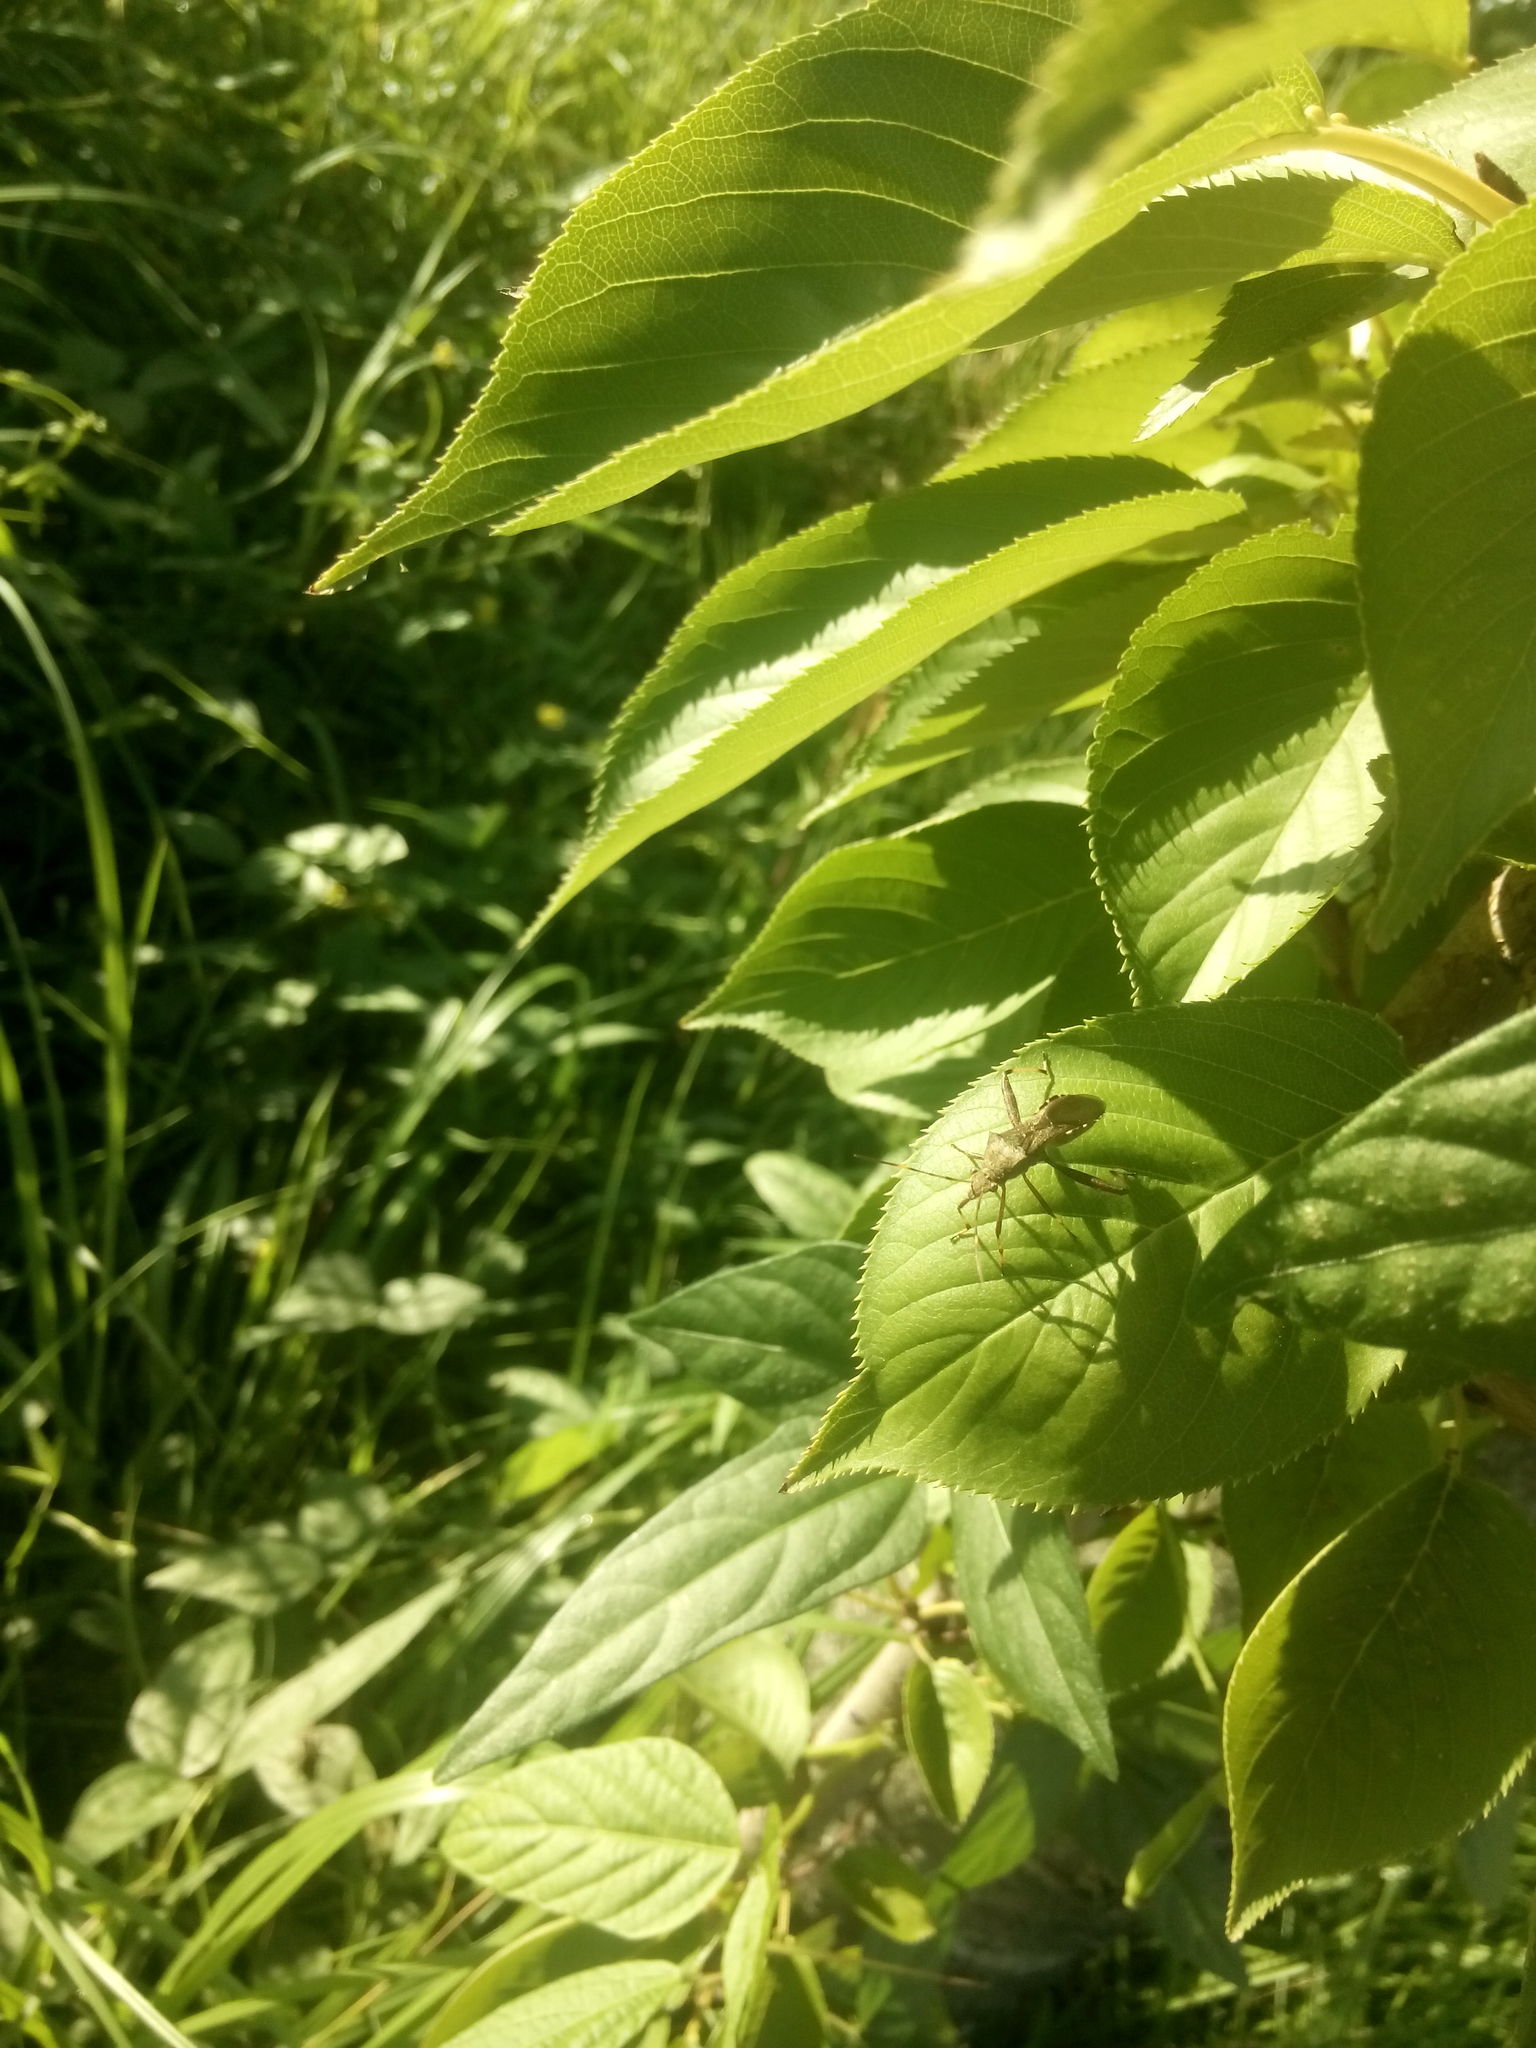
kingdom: Animalia
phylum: Arthropoda
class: Insecta
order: Hemiptera
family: Alydidae
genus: Riptortus
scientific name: Riptortus pedestris
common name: Bean bug
